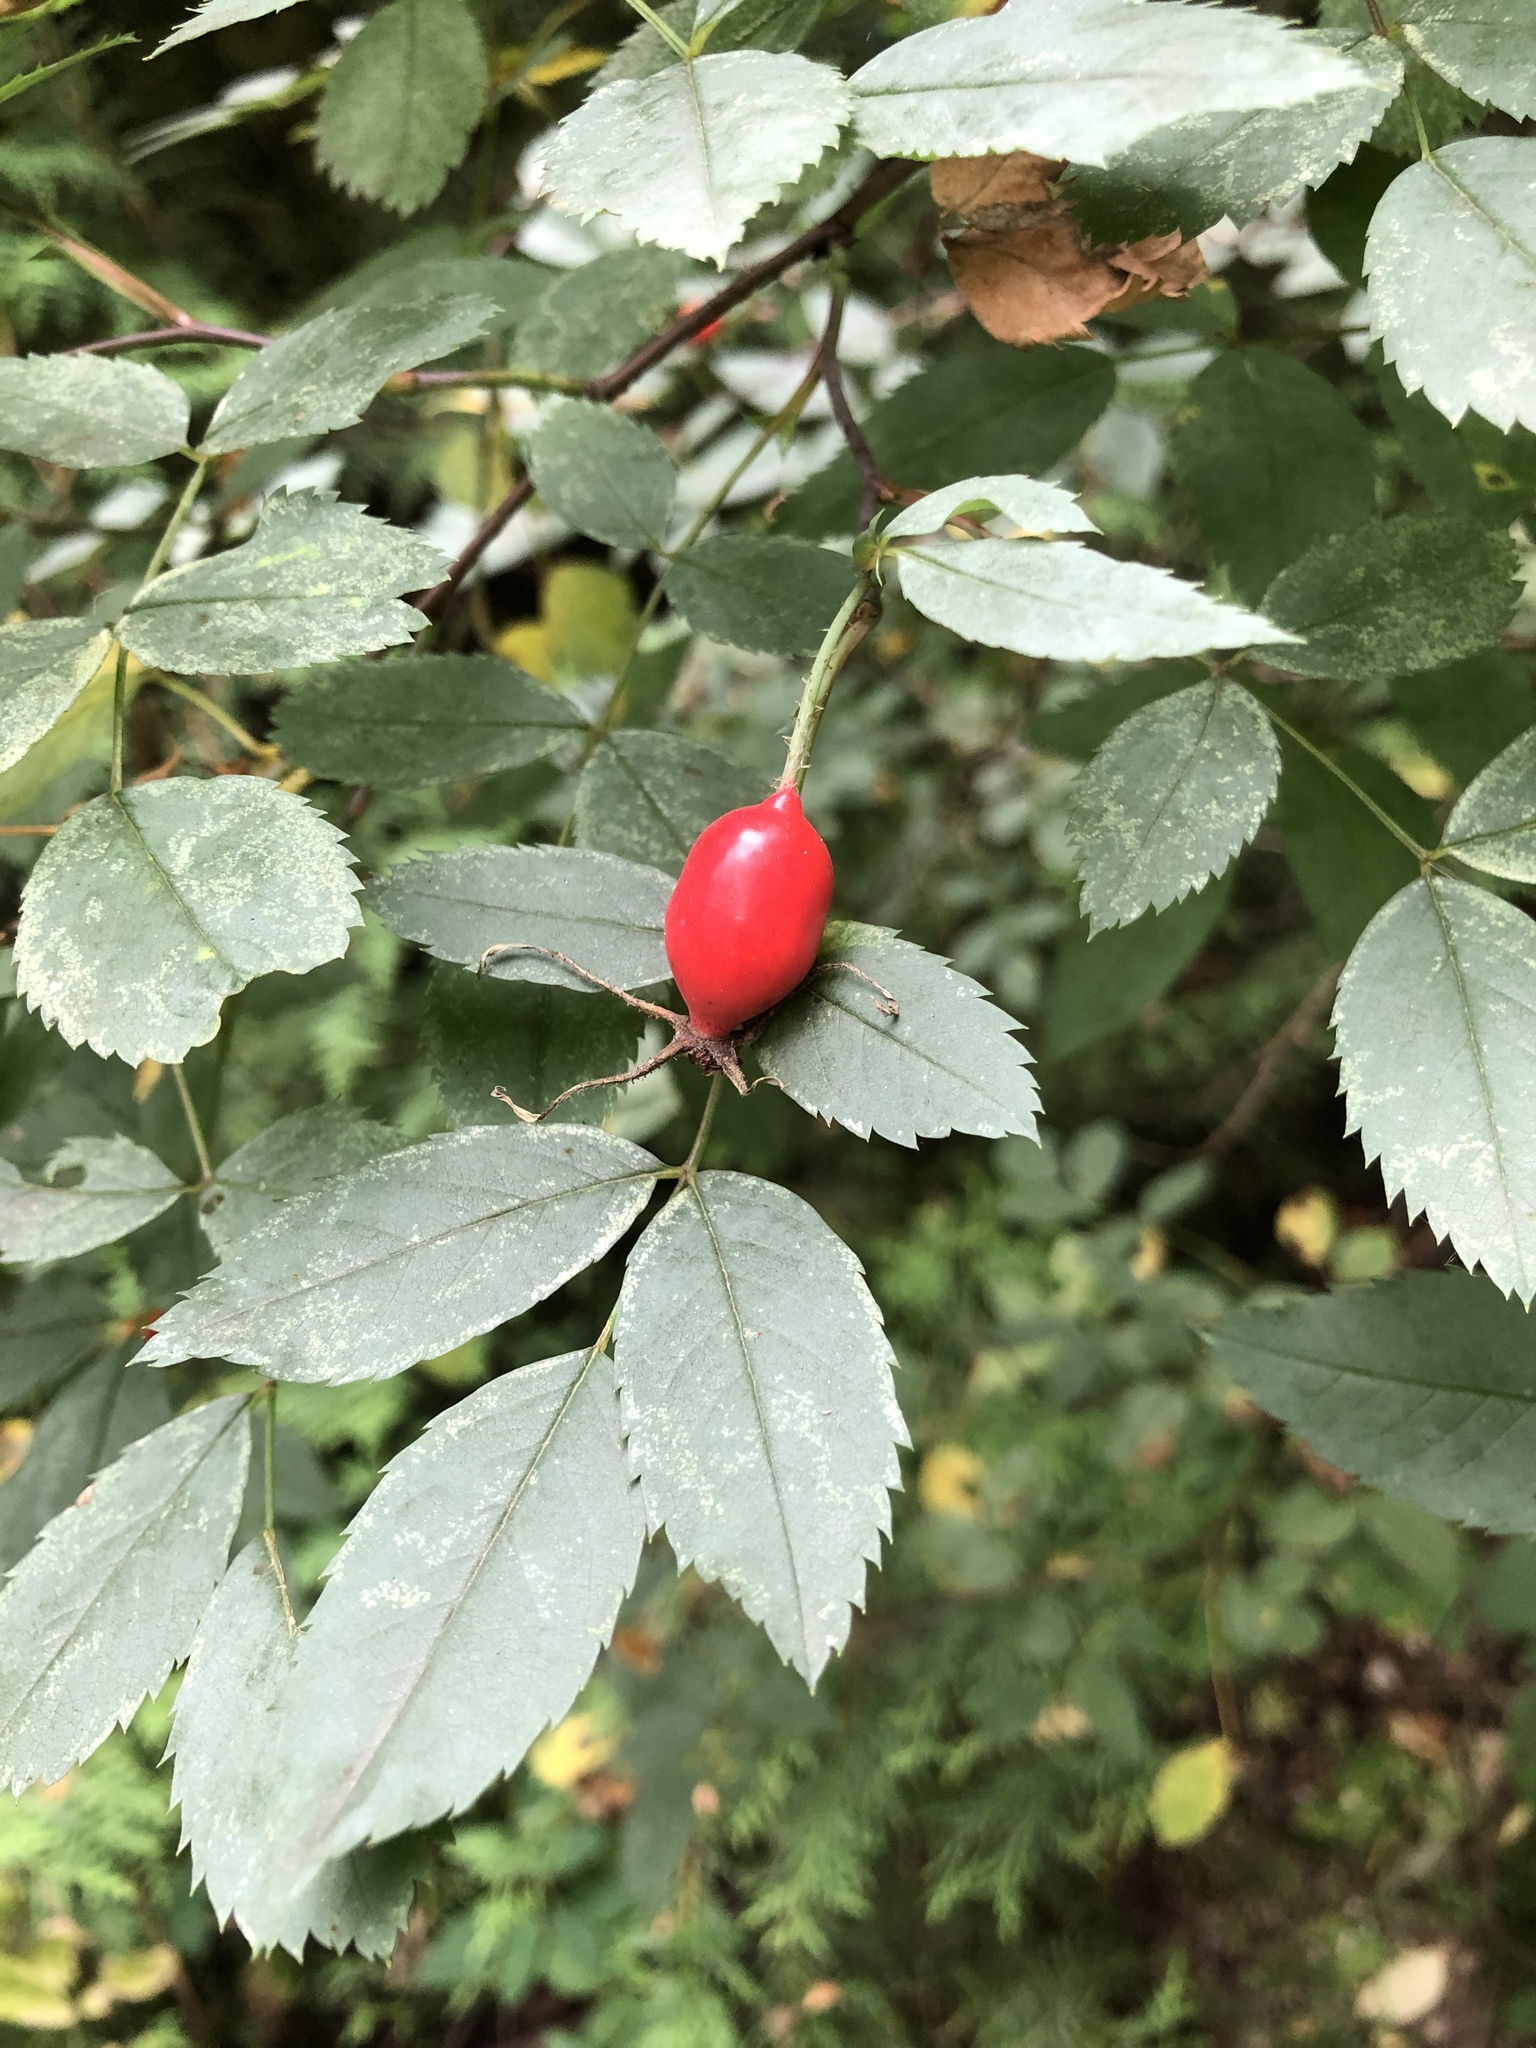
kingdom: Plantae
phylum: Tracheophyta
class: Magnoliopsida
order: Rosales
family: Rosaceae
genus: Rosa
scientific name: Rosa majalis
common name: Cinnamon rose
